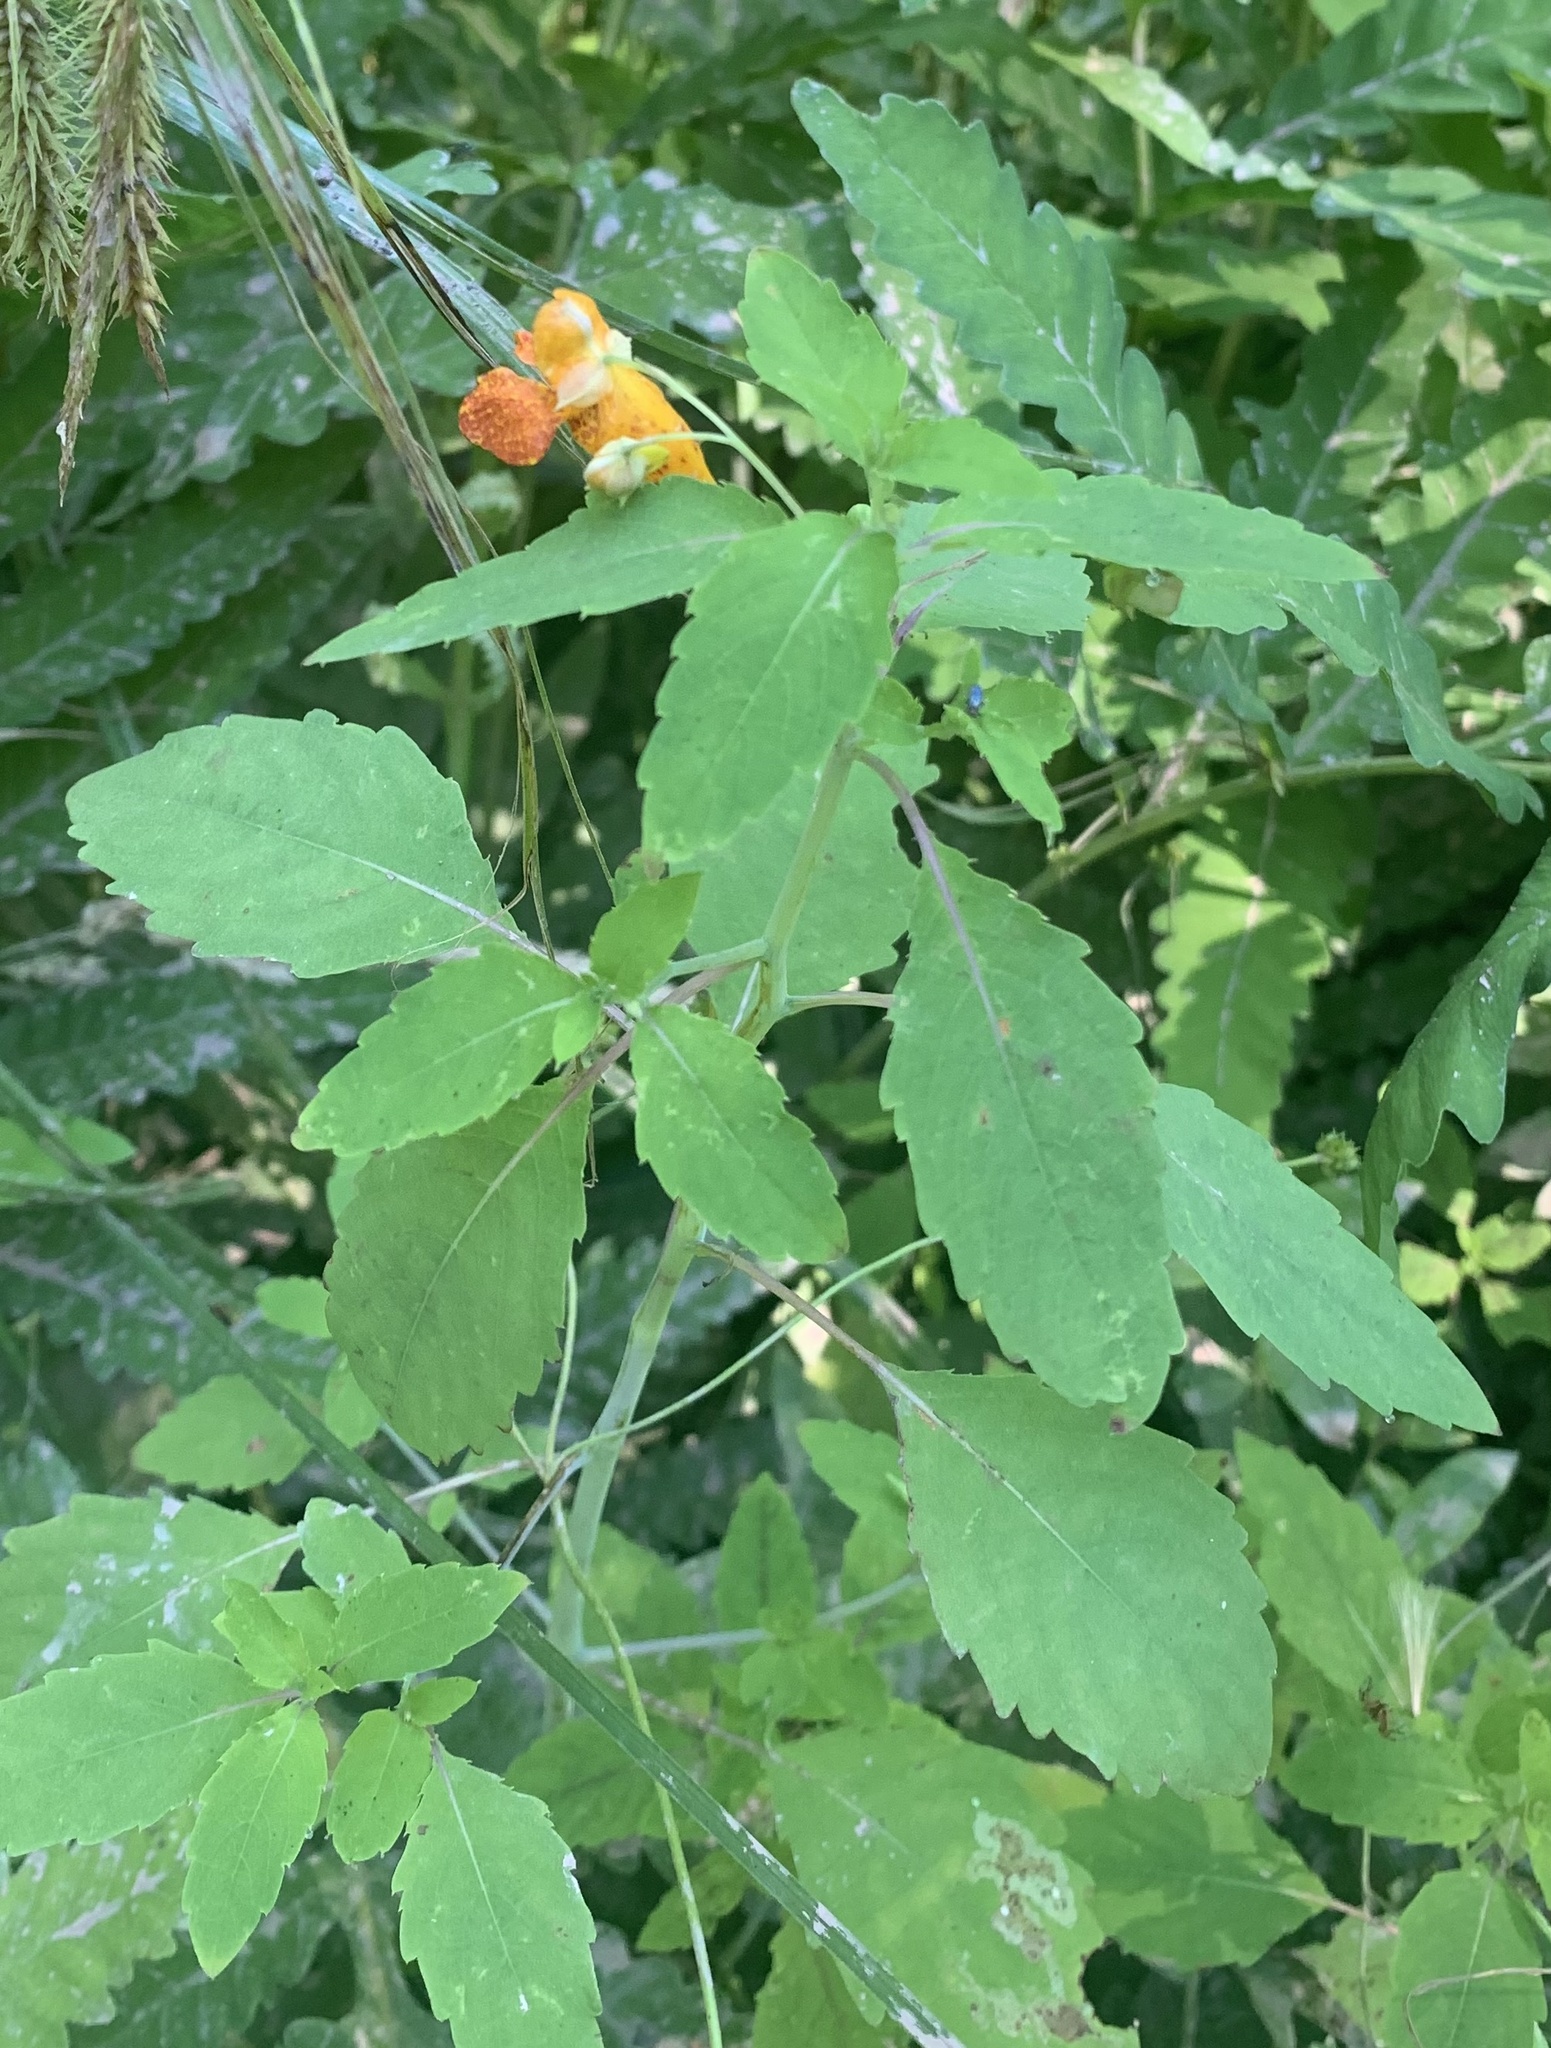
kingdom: Plantae
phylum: Tracheophyta
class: Magnoliopsida
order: Ericales
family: Balsaminaceae
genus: Impatiens
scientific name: Impatiens capensis
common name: Orange balsam
